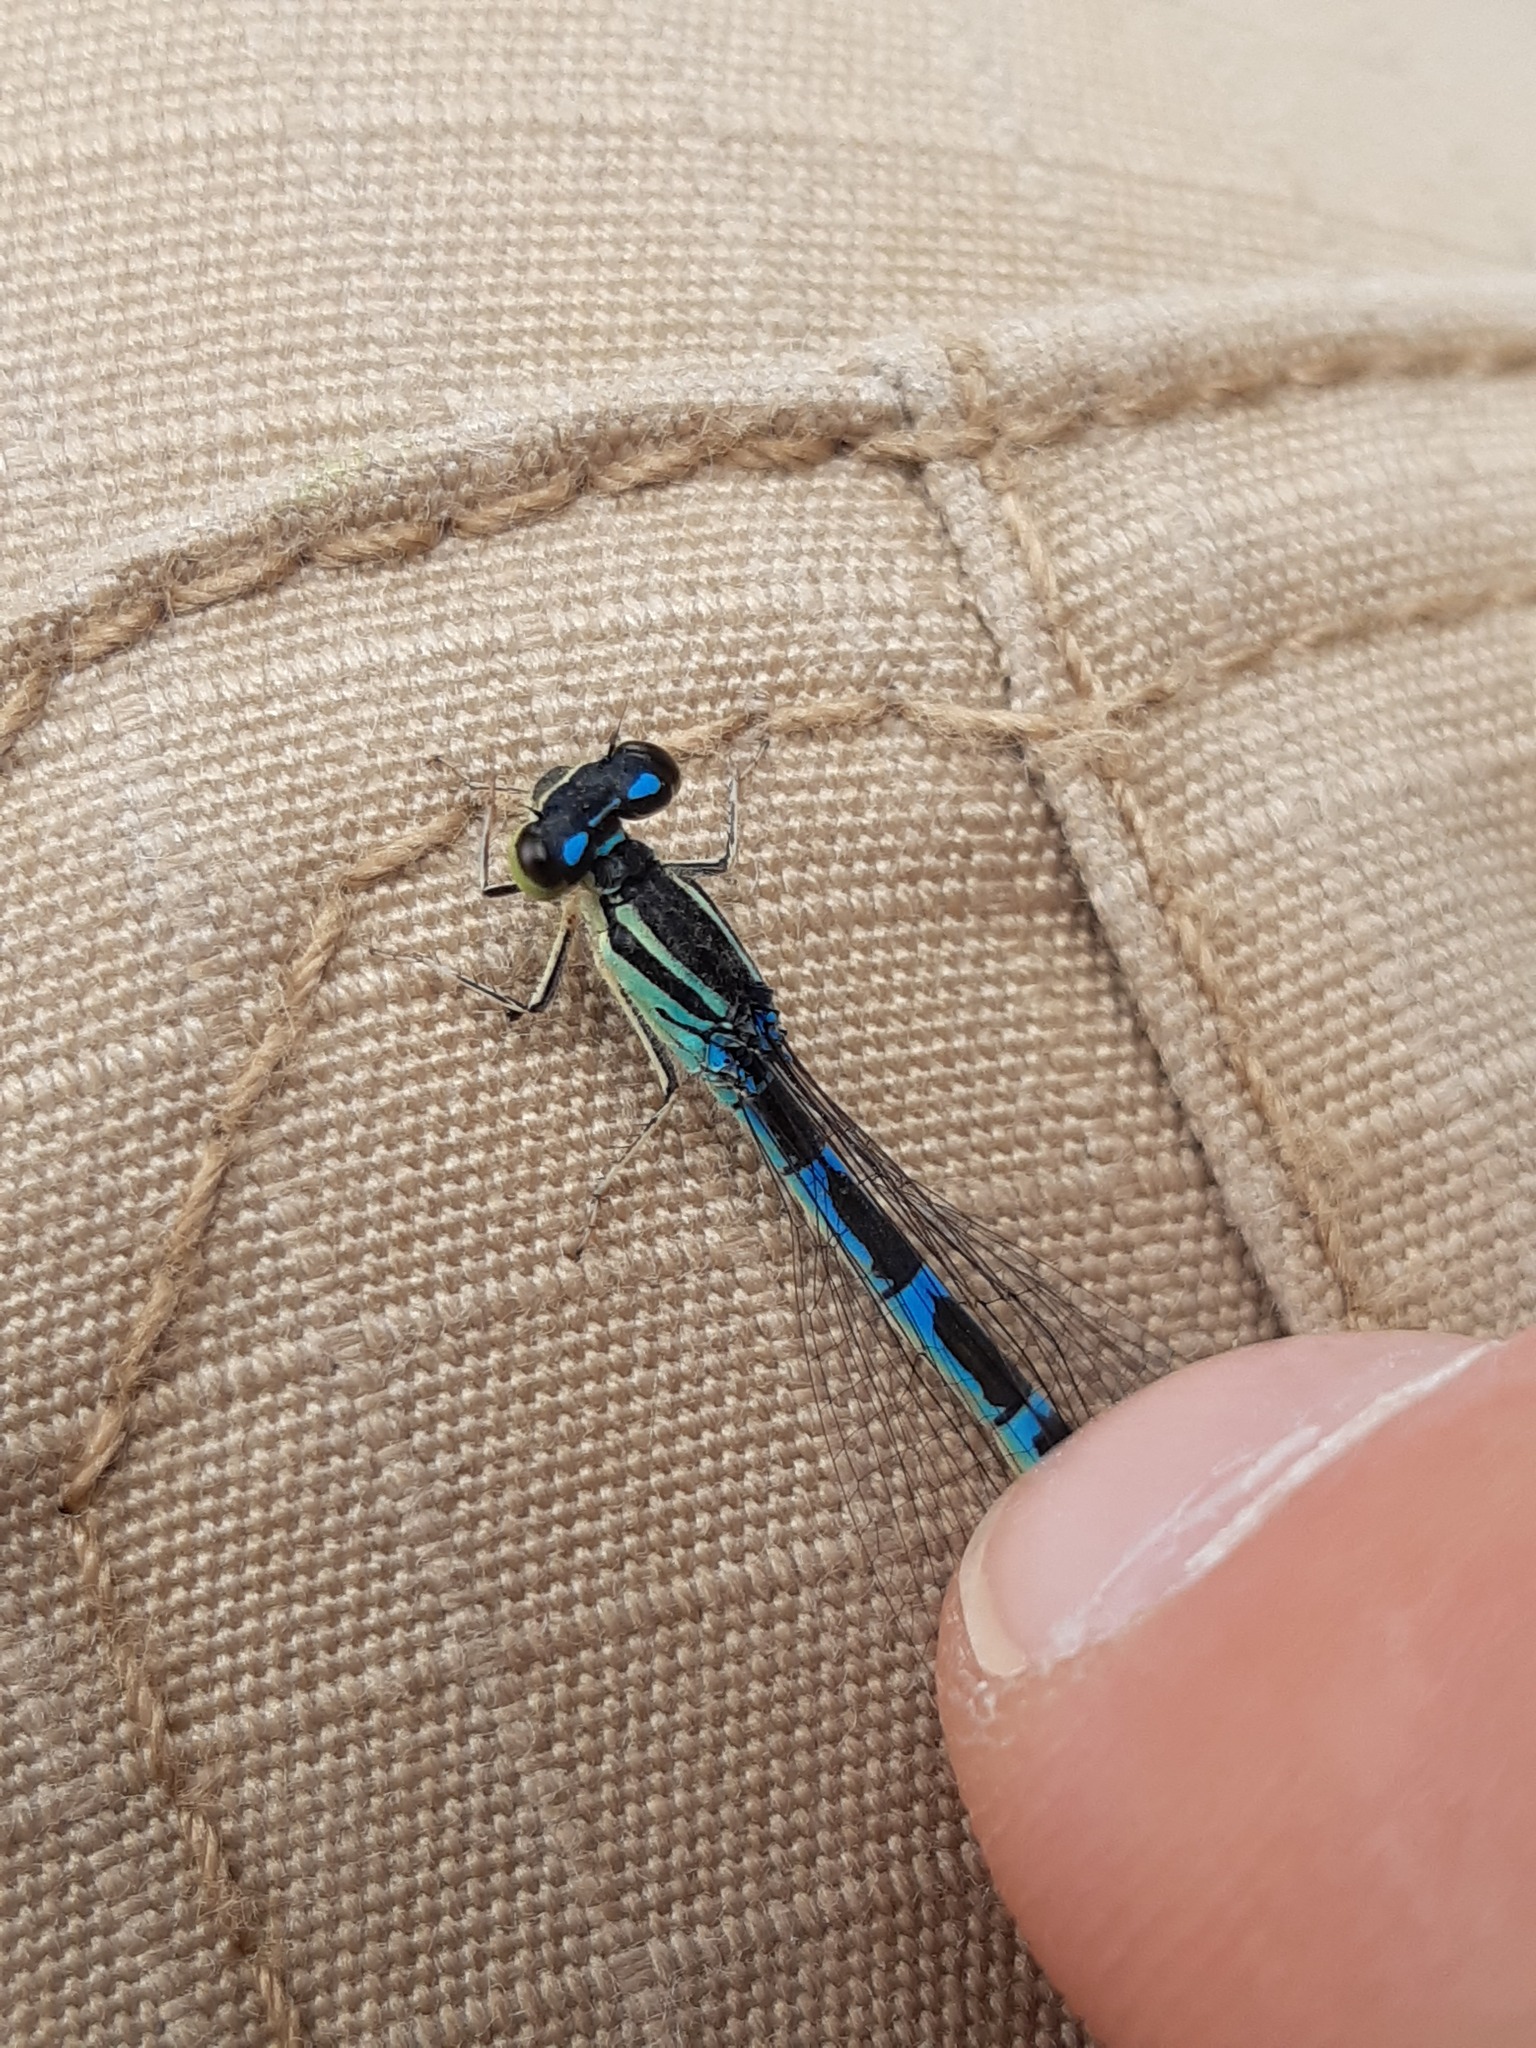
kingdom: Animalia
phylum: Arthropoda
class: Insecta
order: Odonata
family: Coenagrionidae
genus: Coenagrion
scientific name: Coenagrion scitulum
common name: Dainty bluet
